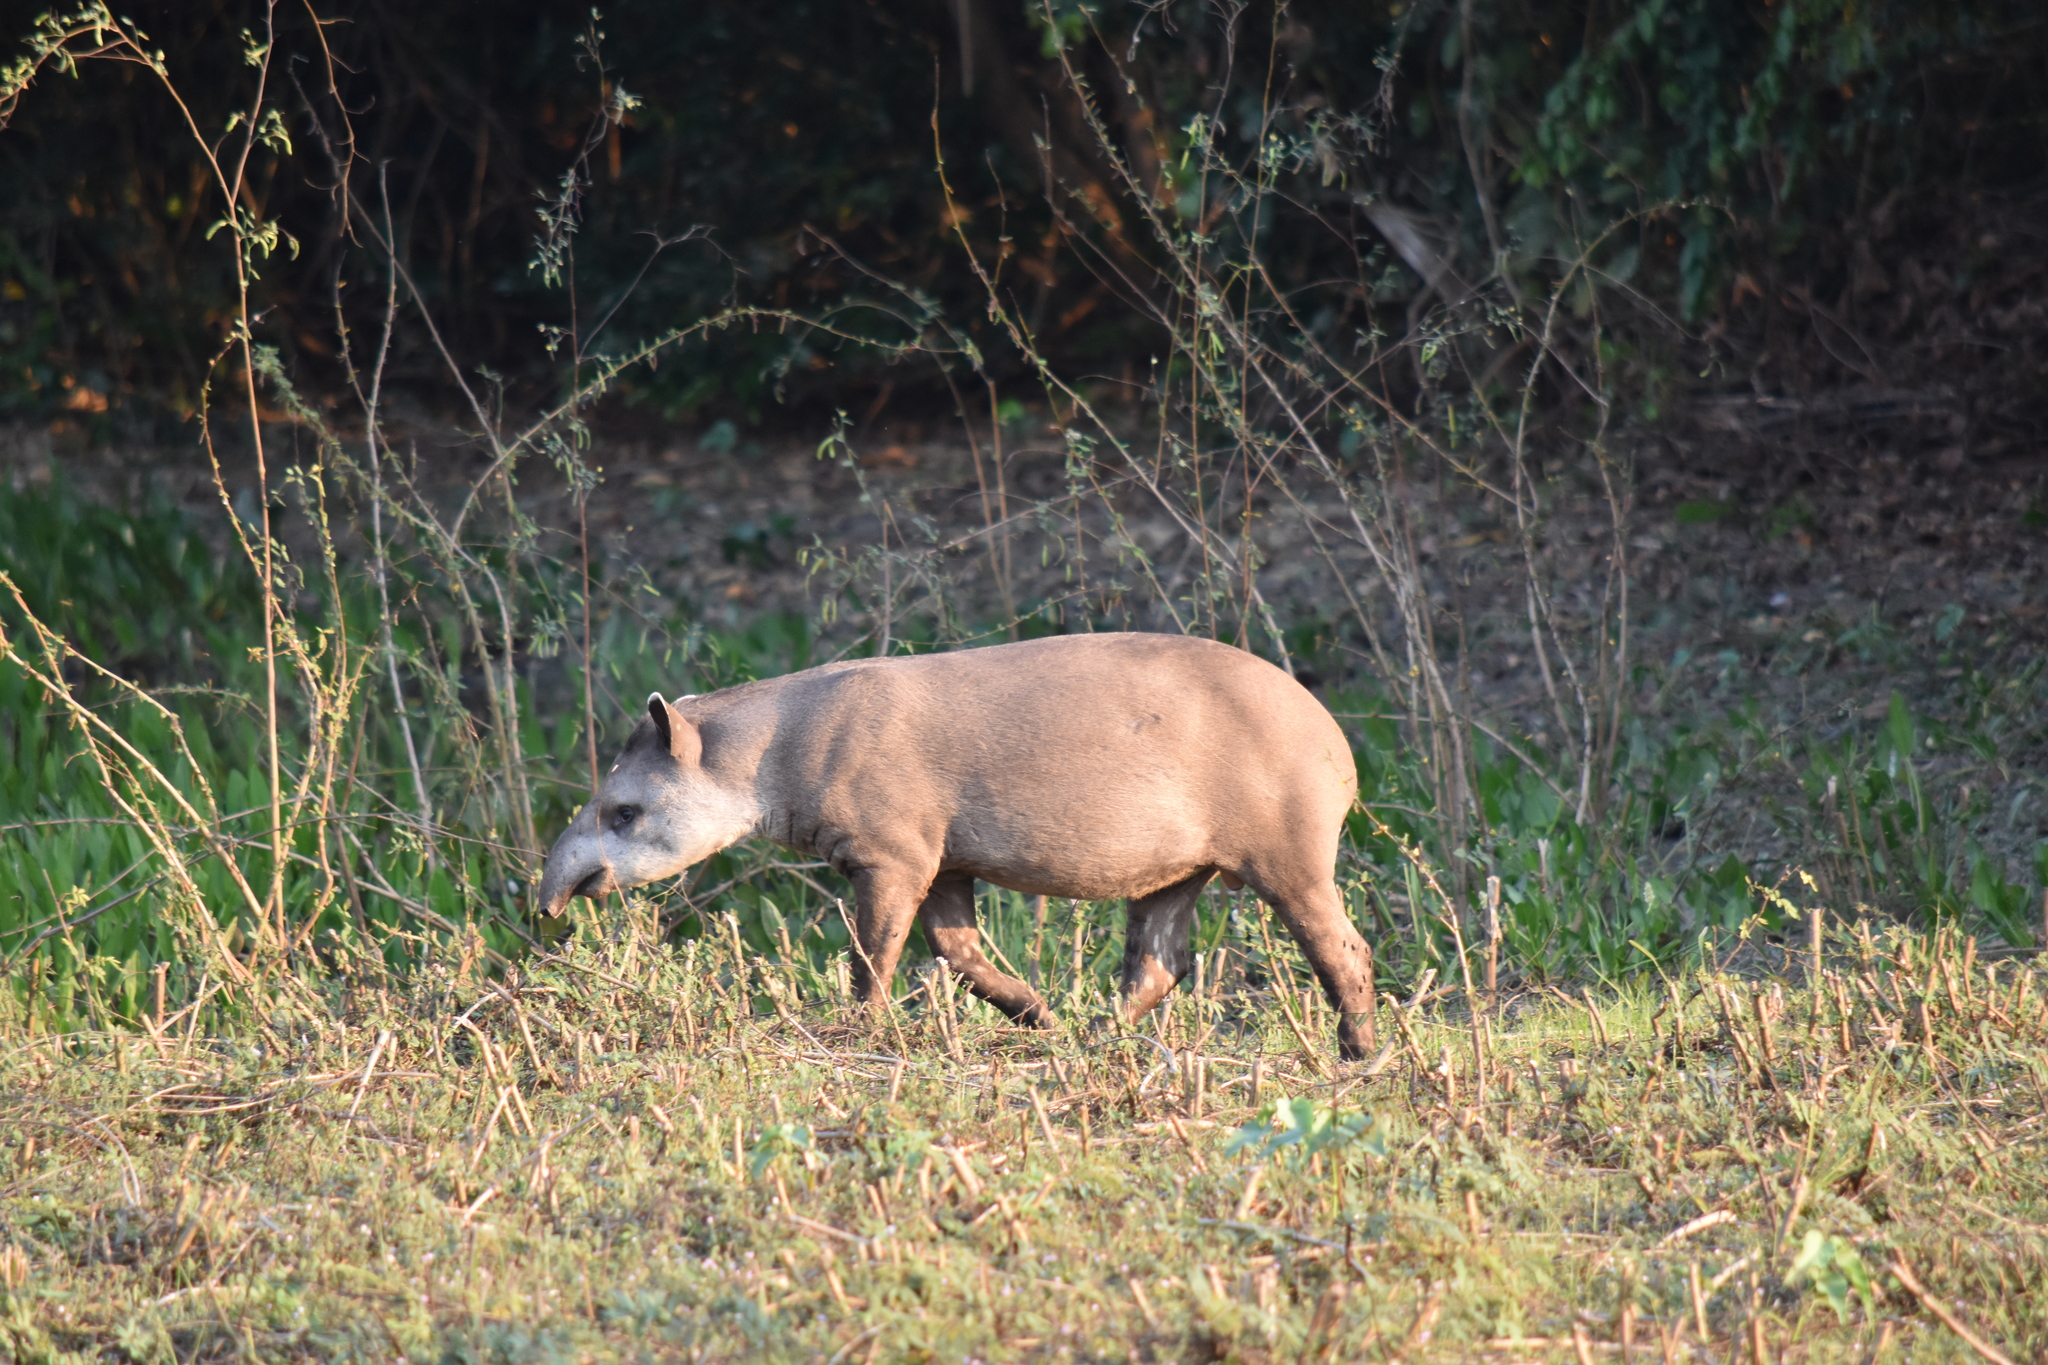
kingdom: Animalia
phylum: Chordata
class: Mammalia
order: Perissodactyla
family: Tapiridae
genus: Tapirus
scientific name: Tapirus terrestris
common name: Brazilian tapir
